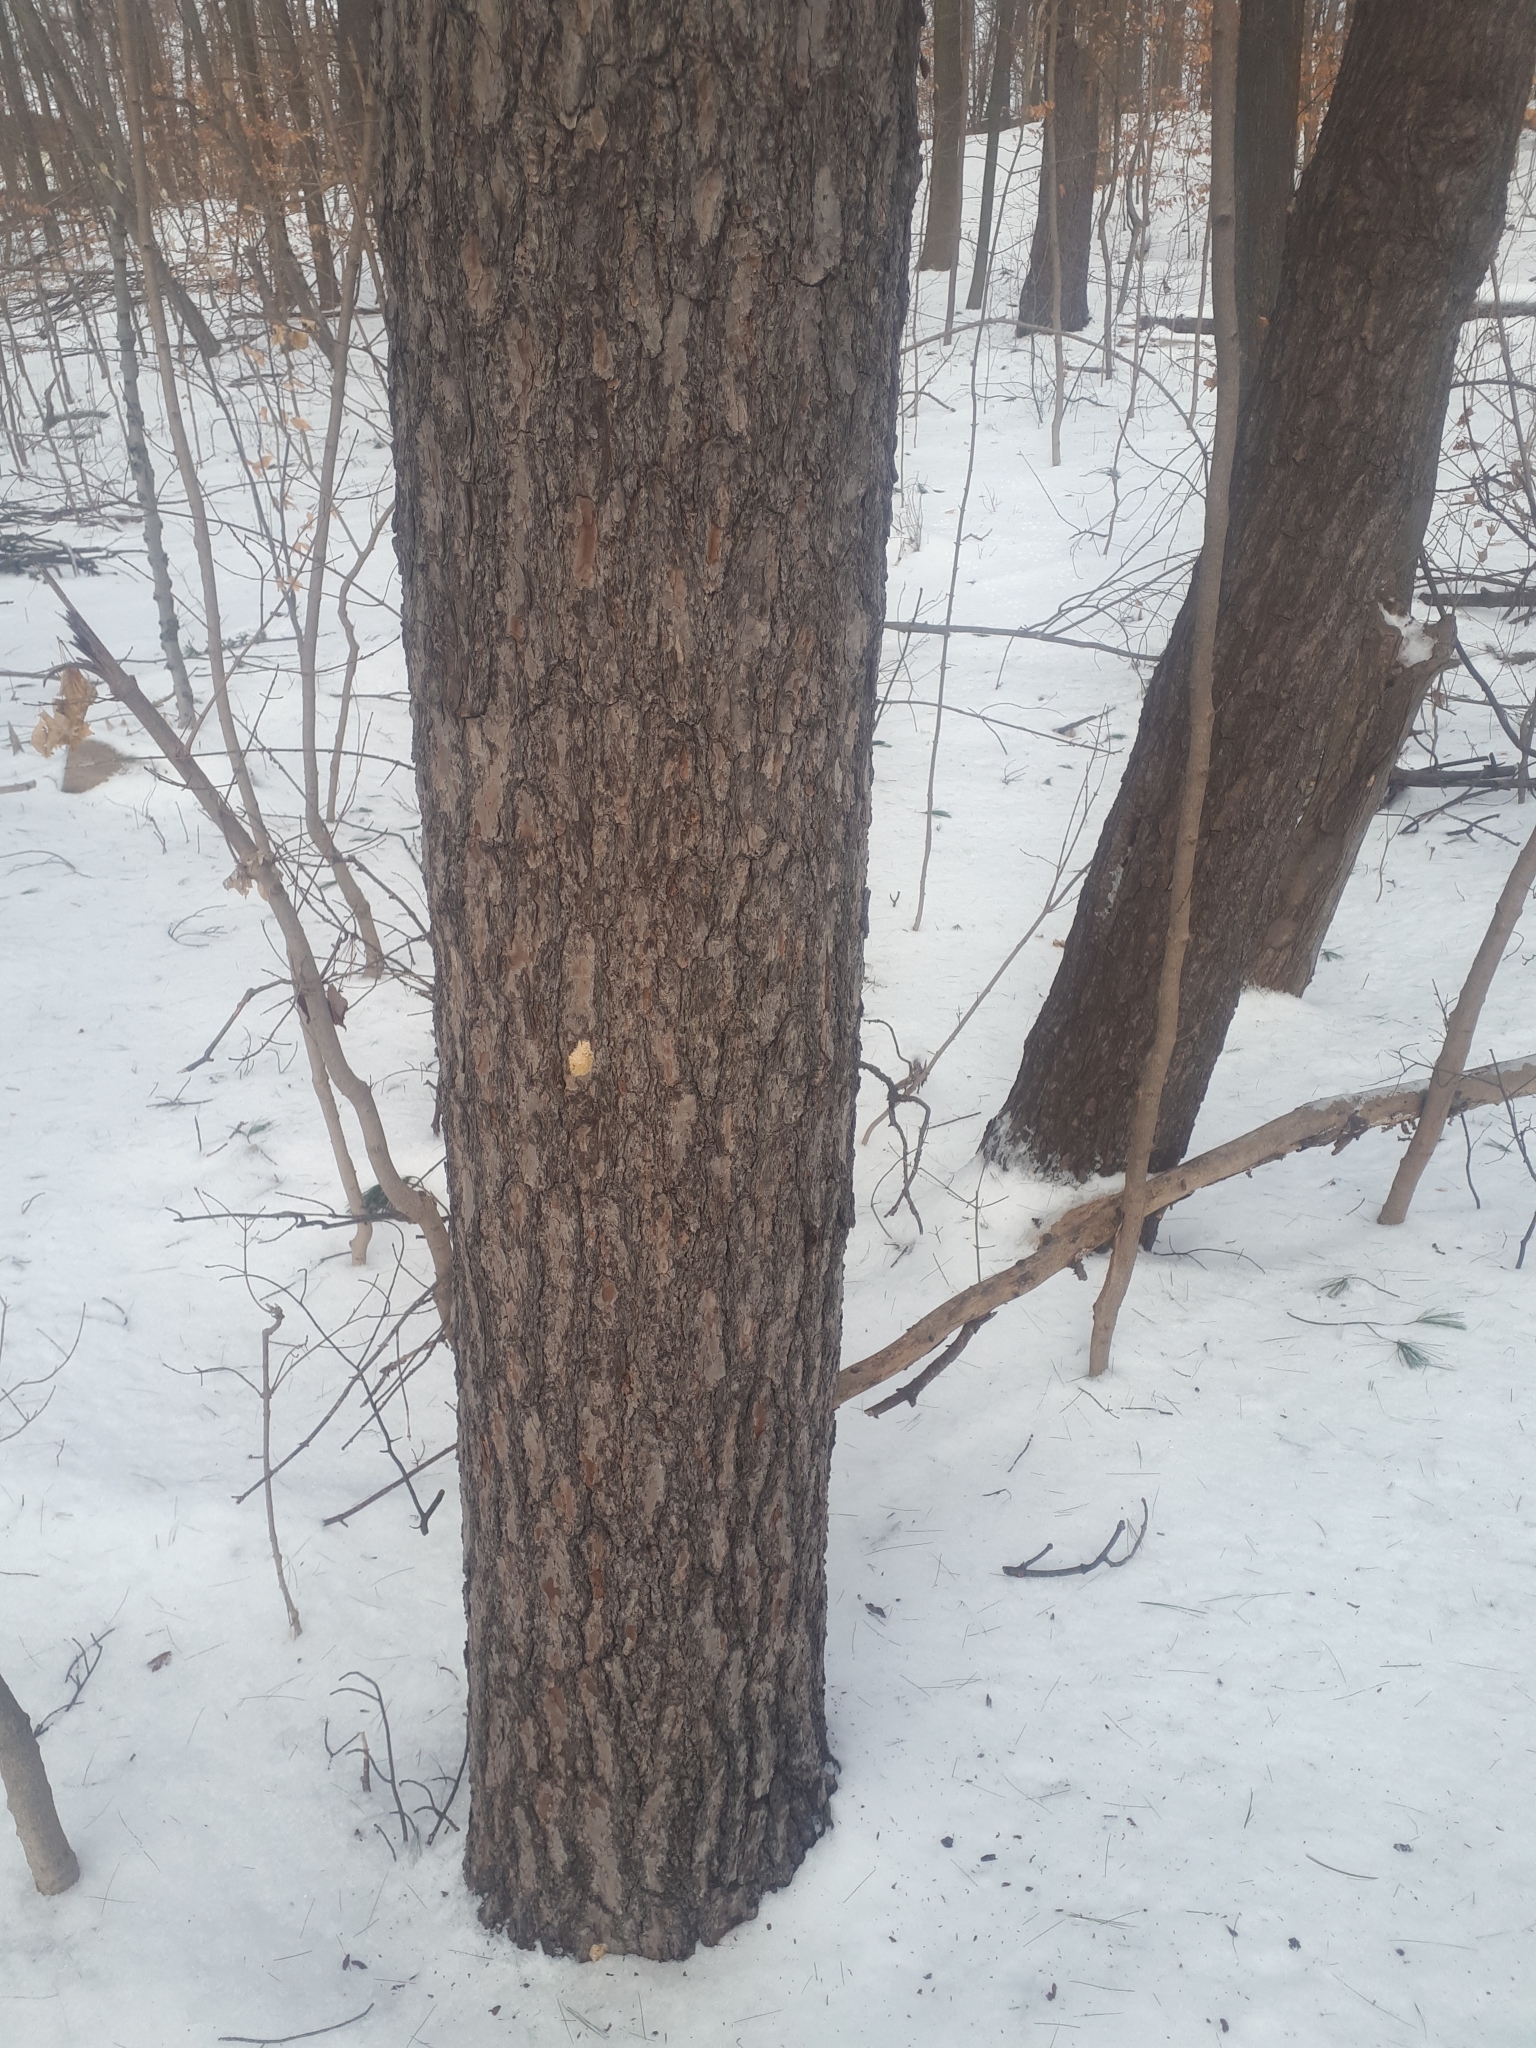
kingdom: Plantae
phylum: Tracheophyta
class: Pinopsida
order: Pinales
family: Pinaceae
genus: Pinus
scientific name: Pinus strobus
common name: Weymouth pine
